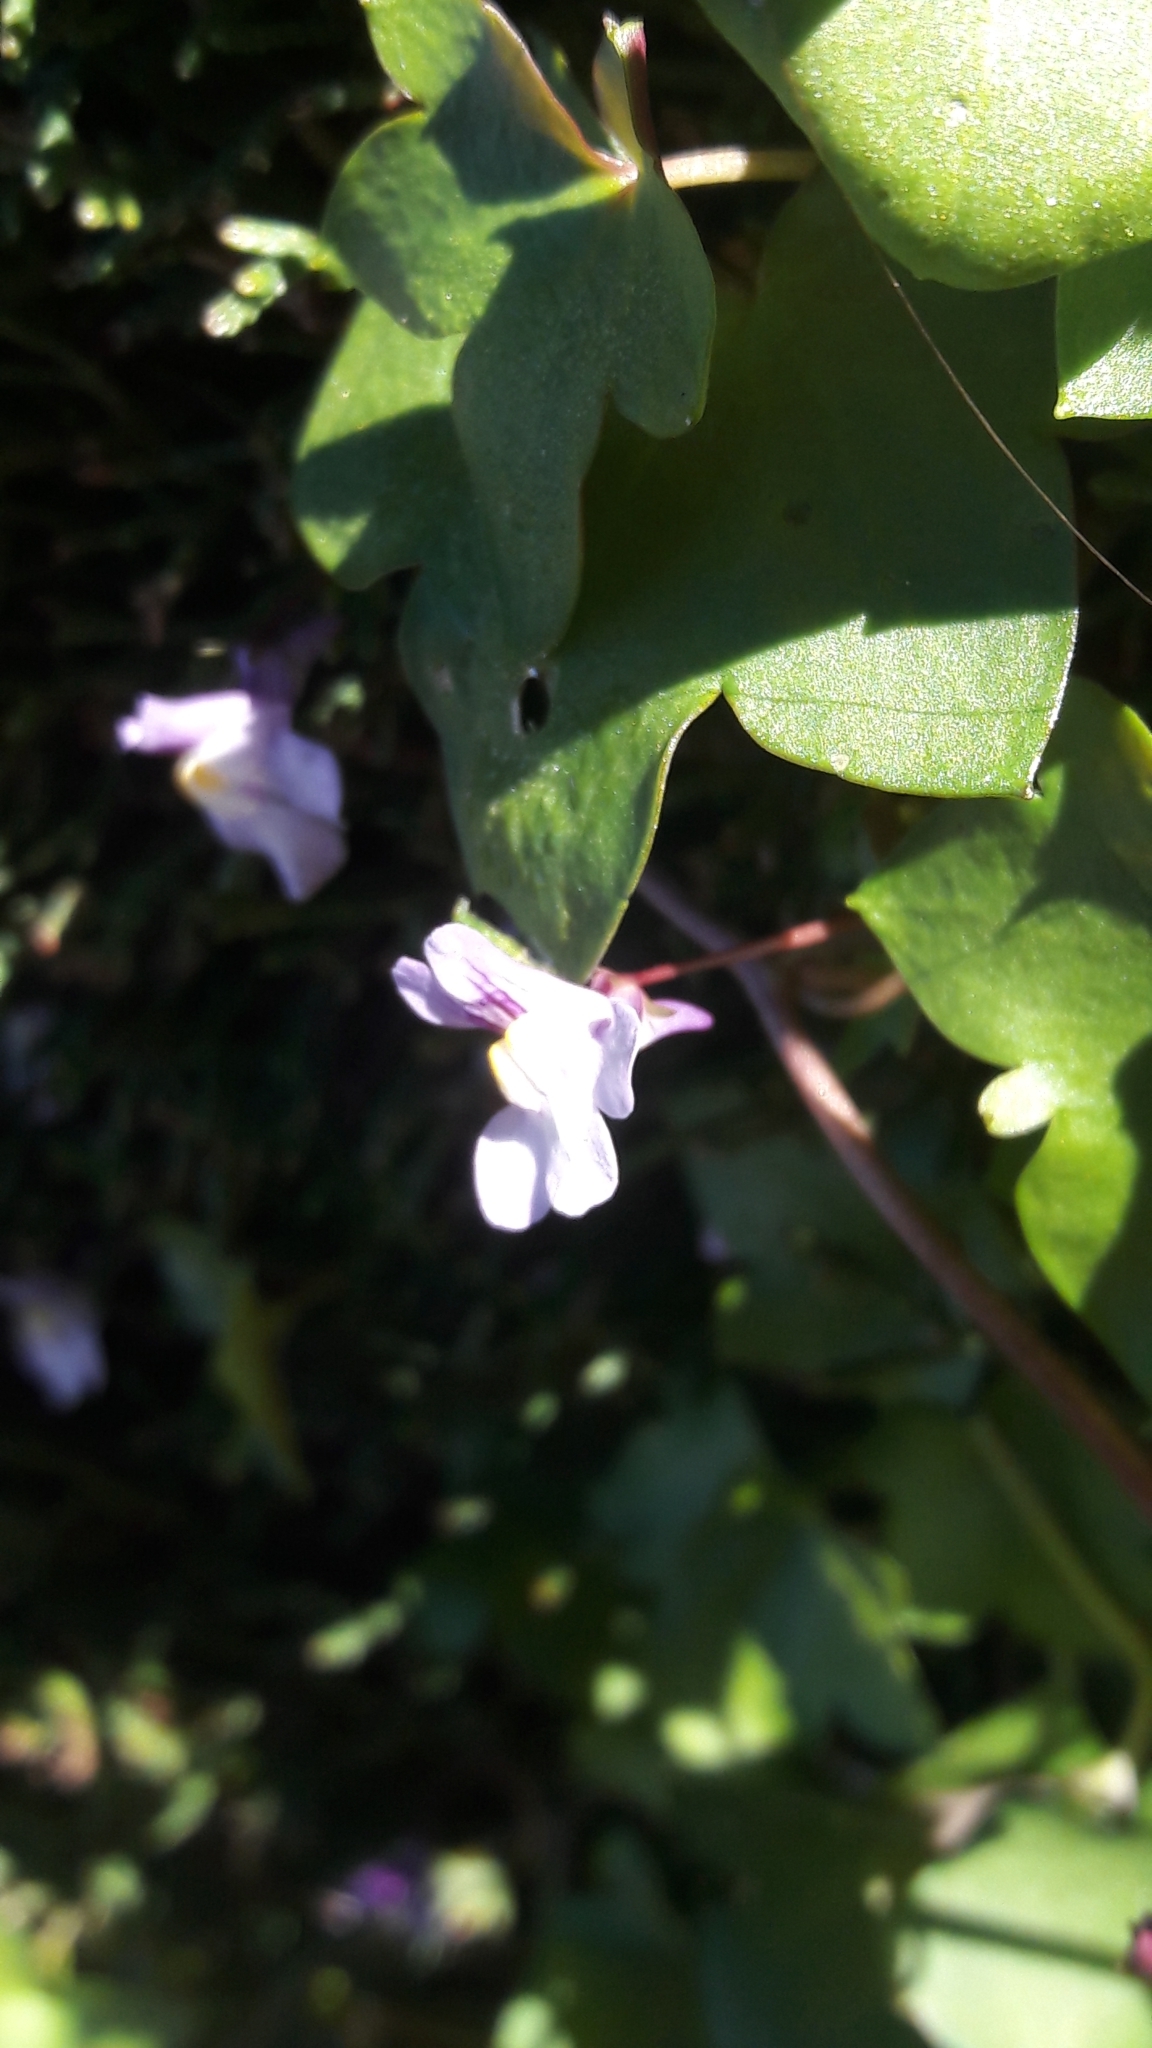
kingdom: Plantae
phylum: Tracheophyta
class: Magnoliopsida
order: Lamiales
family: Plantaginaceae
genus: Cymbalaria
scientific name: Cymbalaria muralis
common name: Ivy-leaved toadflax
